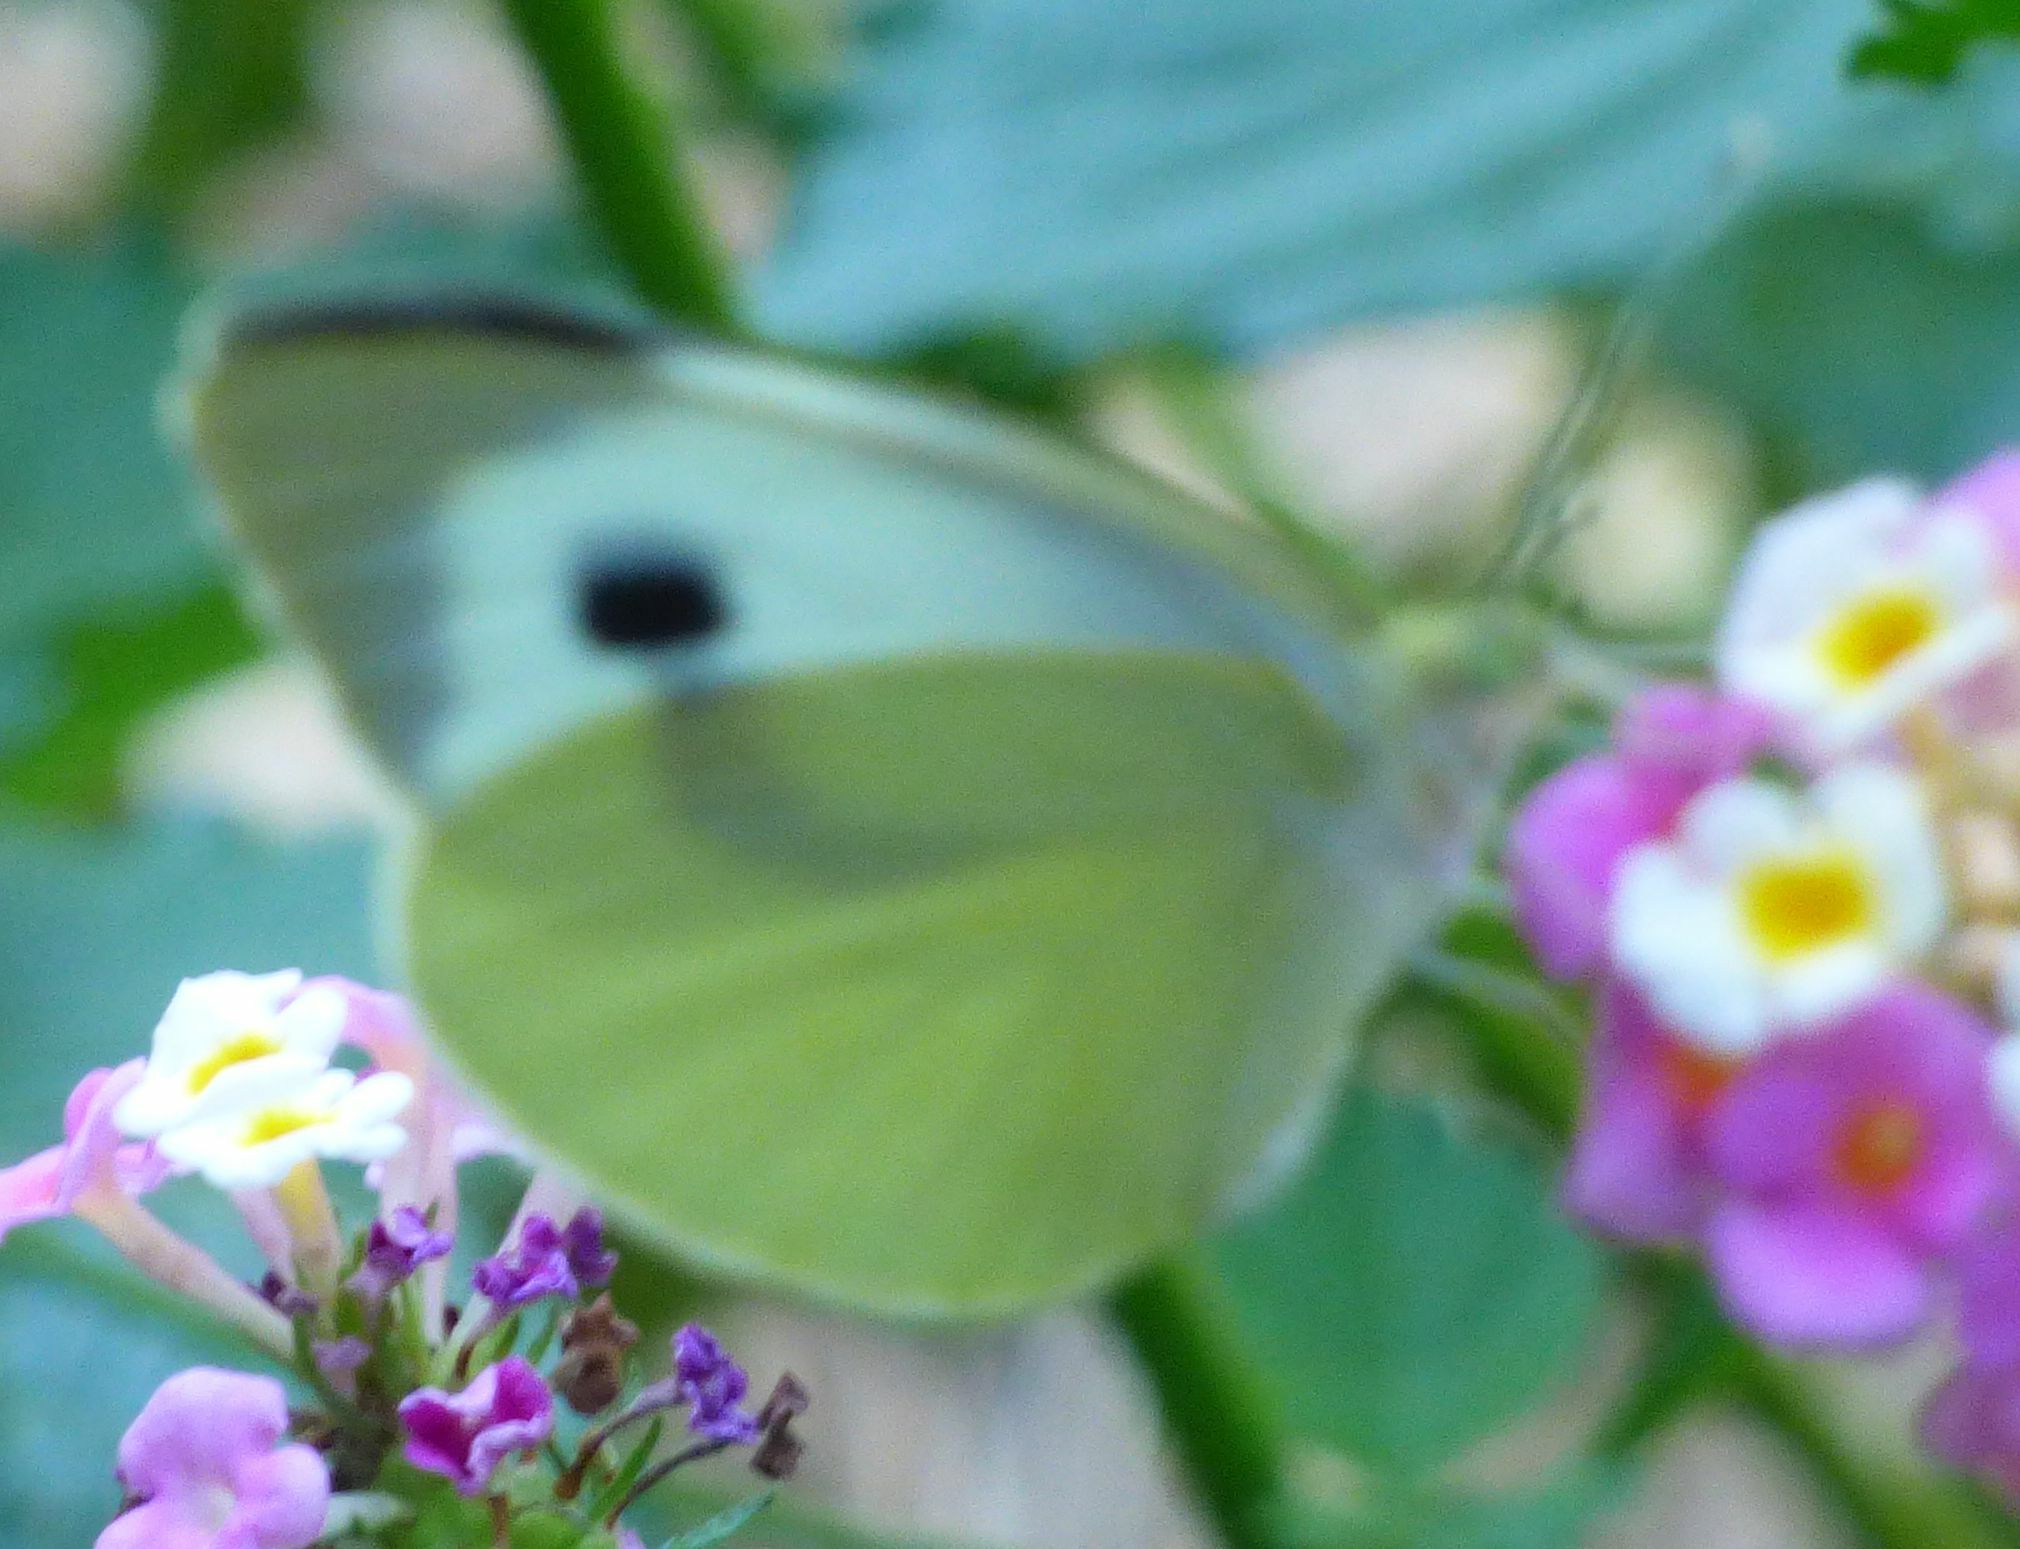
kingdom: Animalia
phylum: Arthropoda
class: Insecta
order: Lepidoptera
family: Pieridae
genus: Pieris
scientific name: Pieris brassicae
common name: Large white
